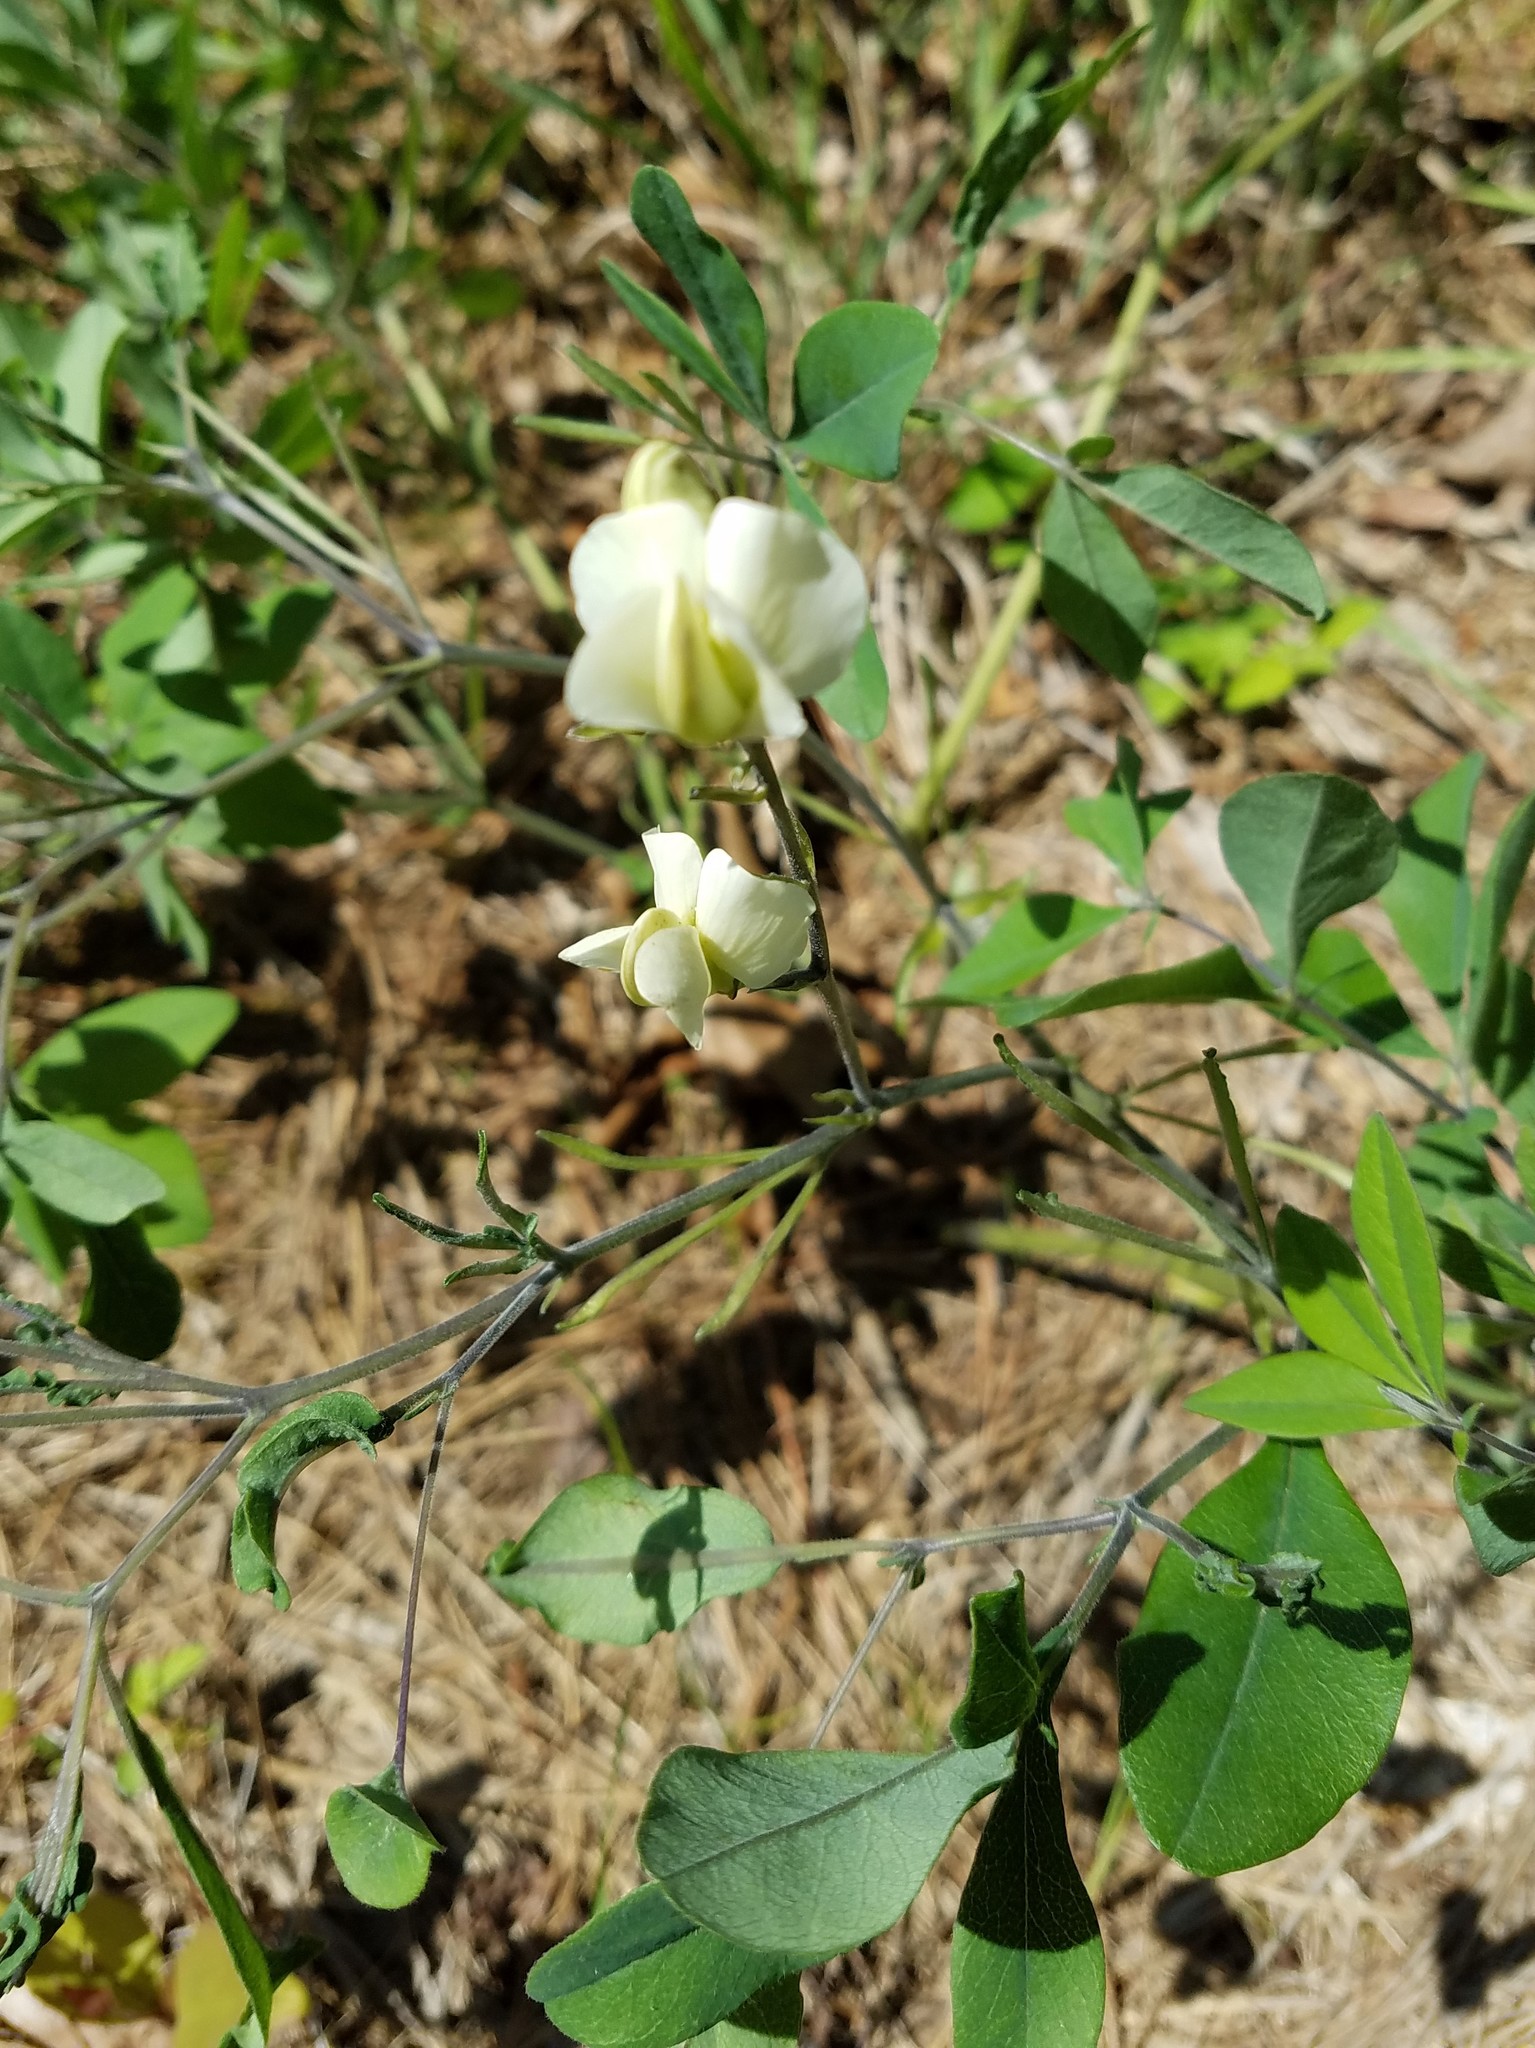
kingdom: Plantae
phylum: Tracheophyta
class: Magnoliopsida
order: Fabales
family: Fabaceae
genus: Baptisia
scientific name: Baptisia bracteata
